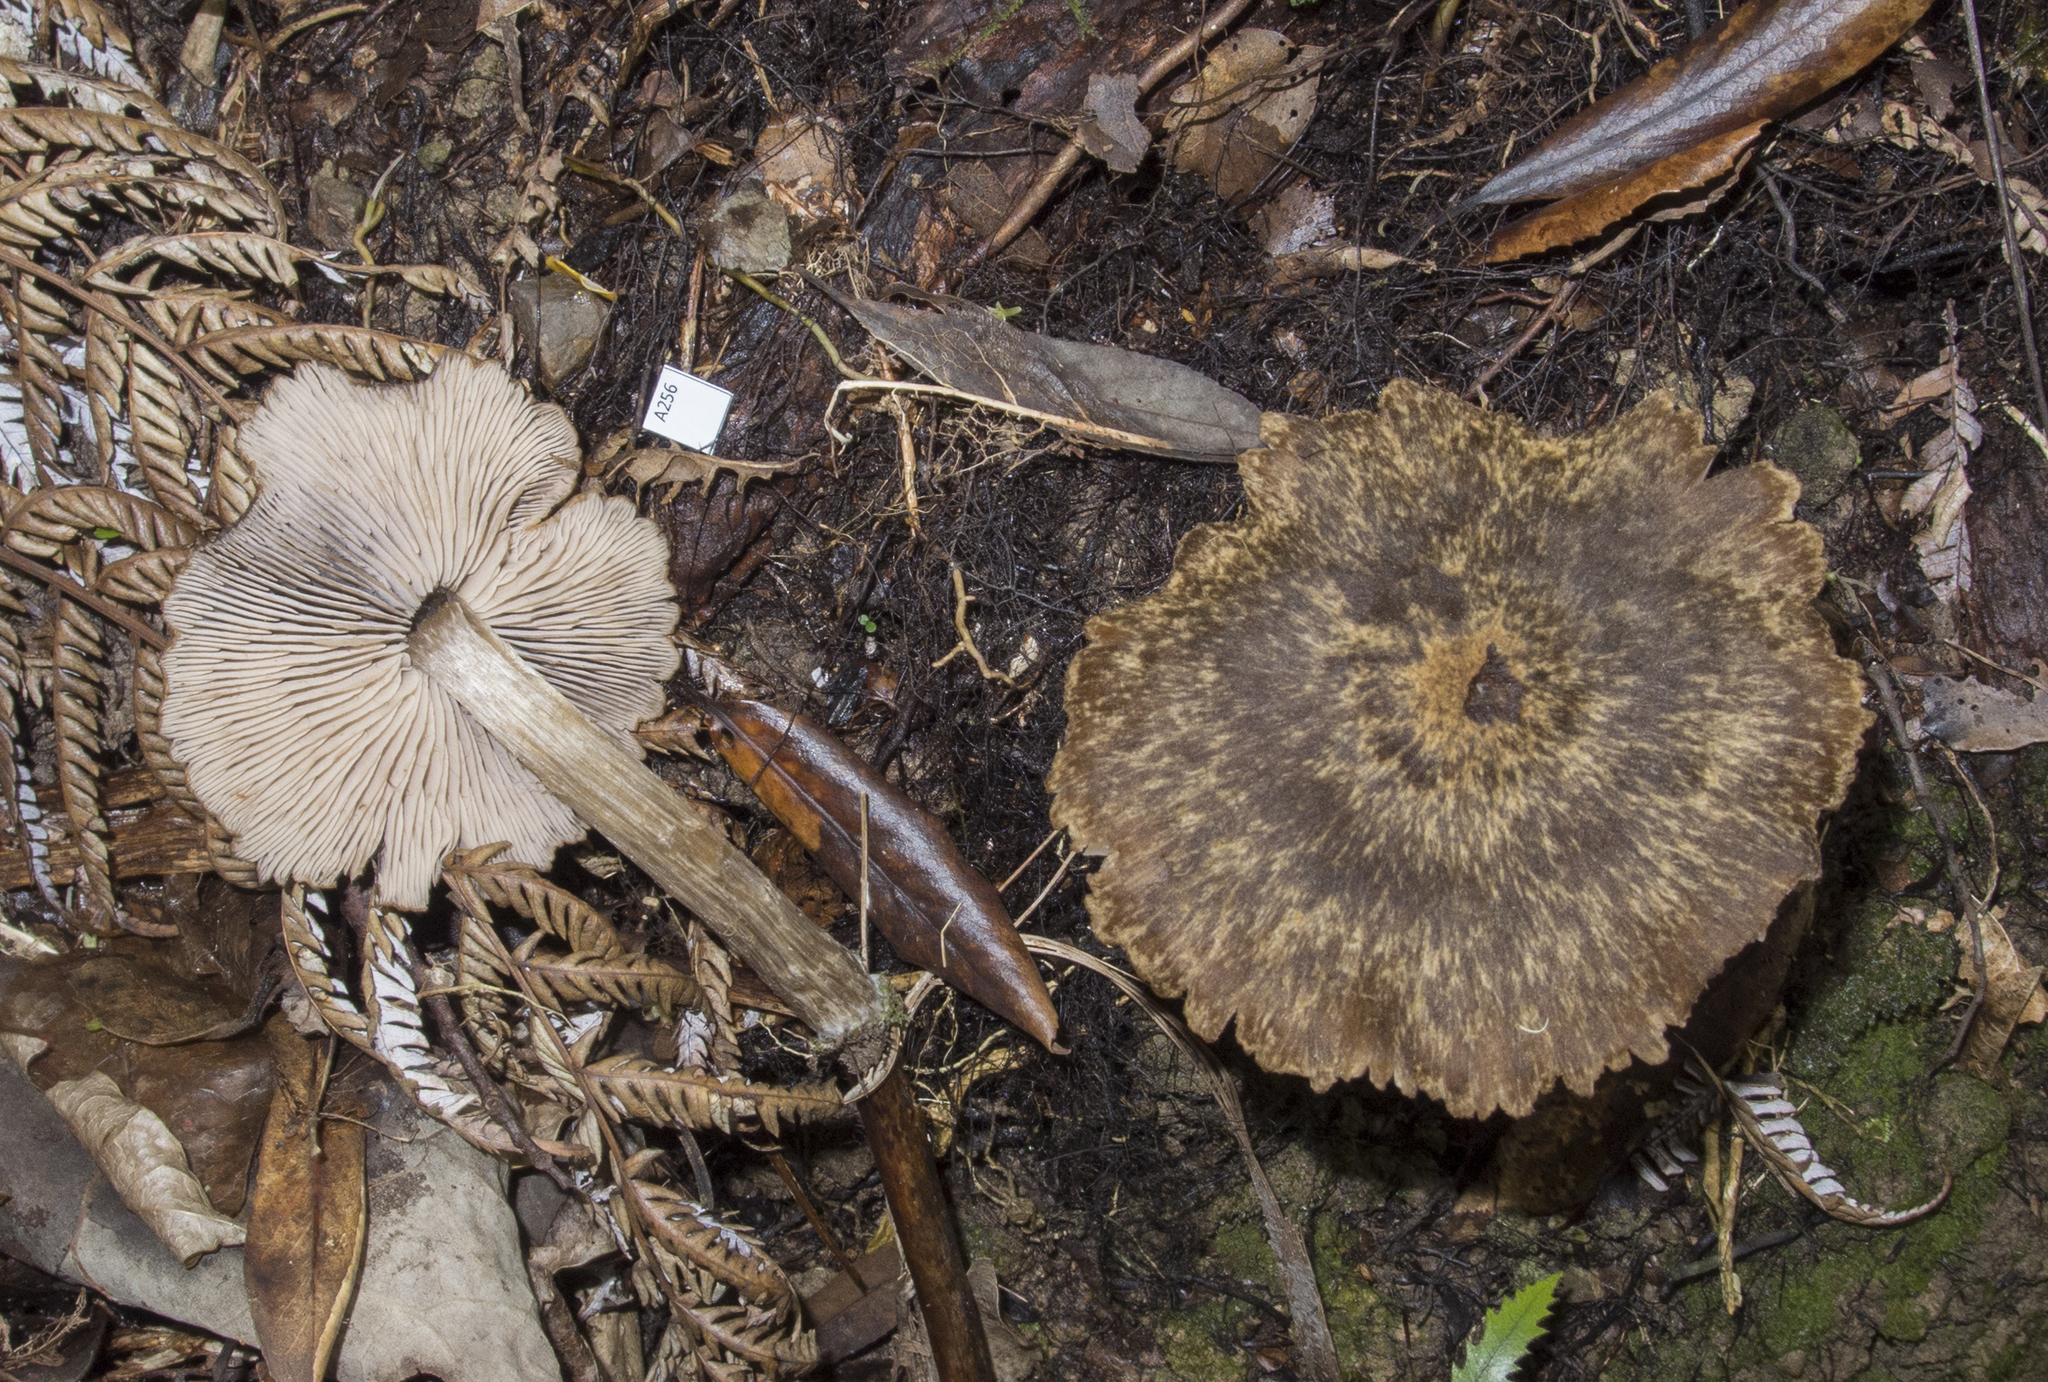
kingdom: Fungi
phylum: Basidiomycota
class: Agaricomycetes
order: Agaricales
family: Entolomataceae
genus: Entoloma
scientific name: Entoloma translucidum
